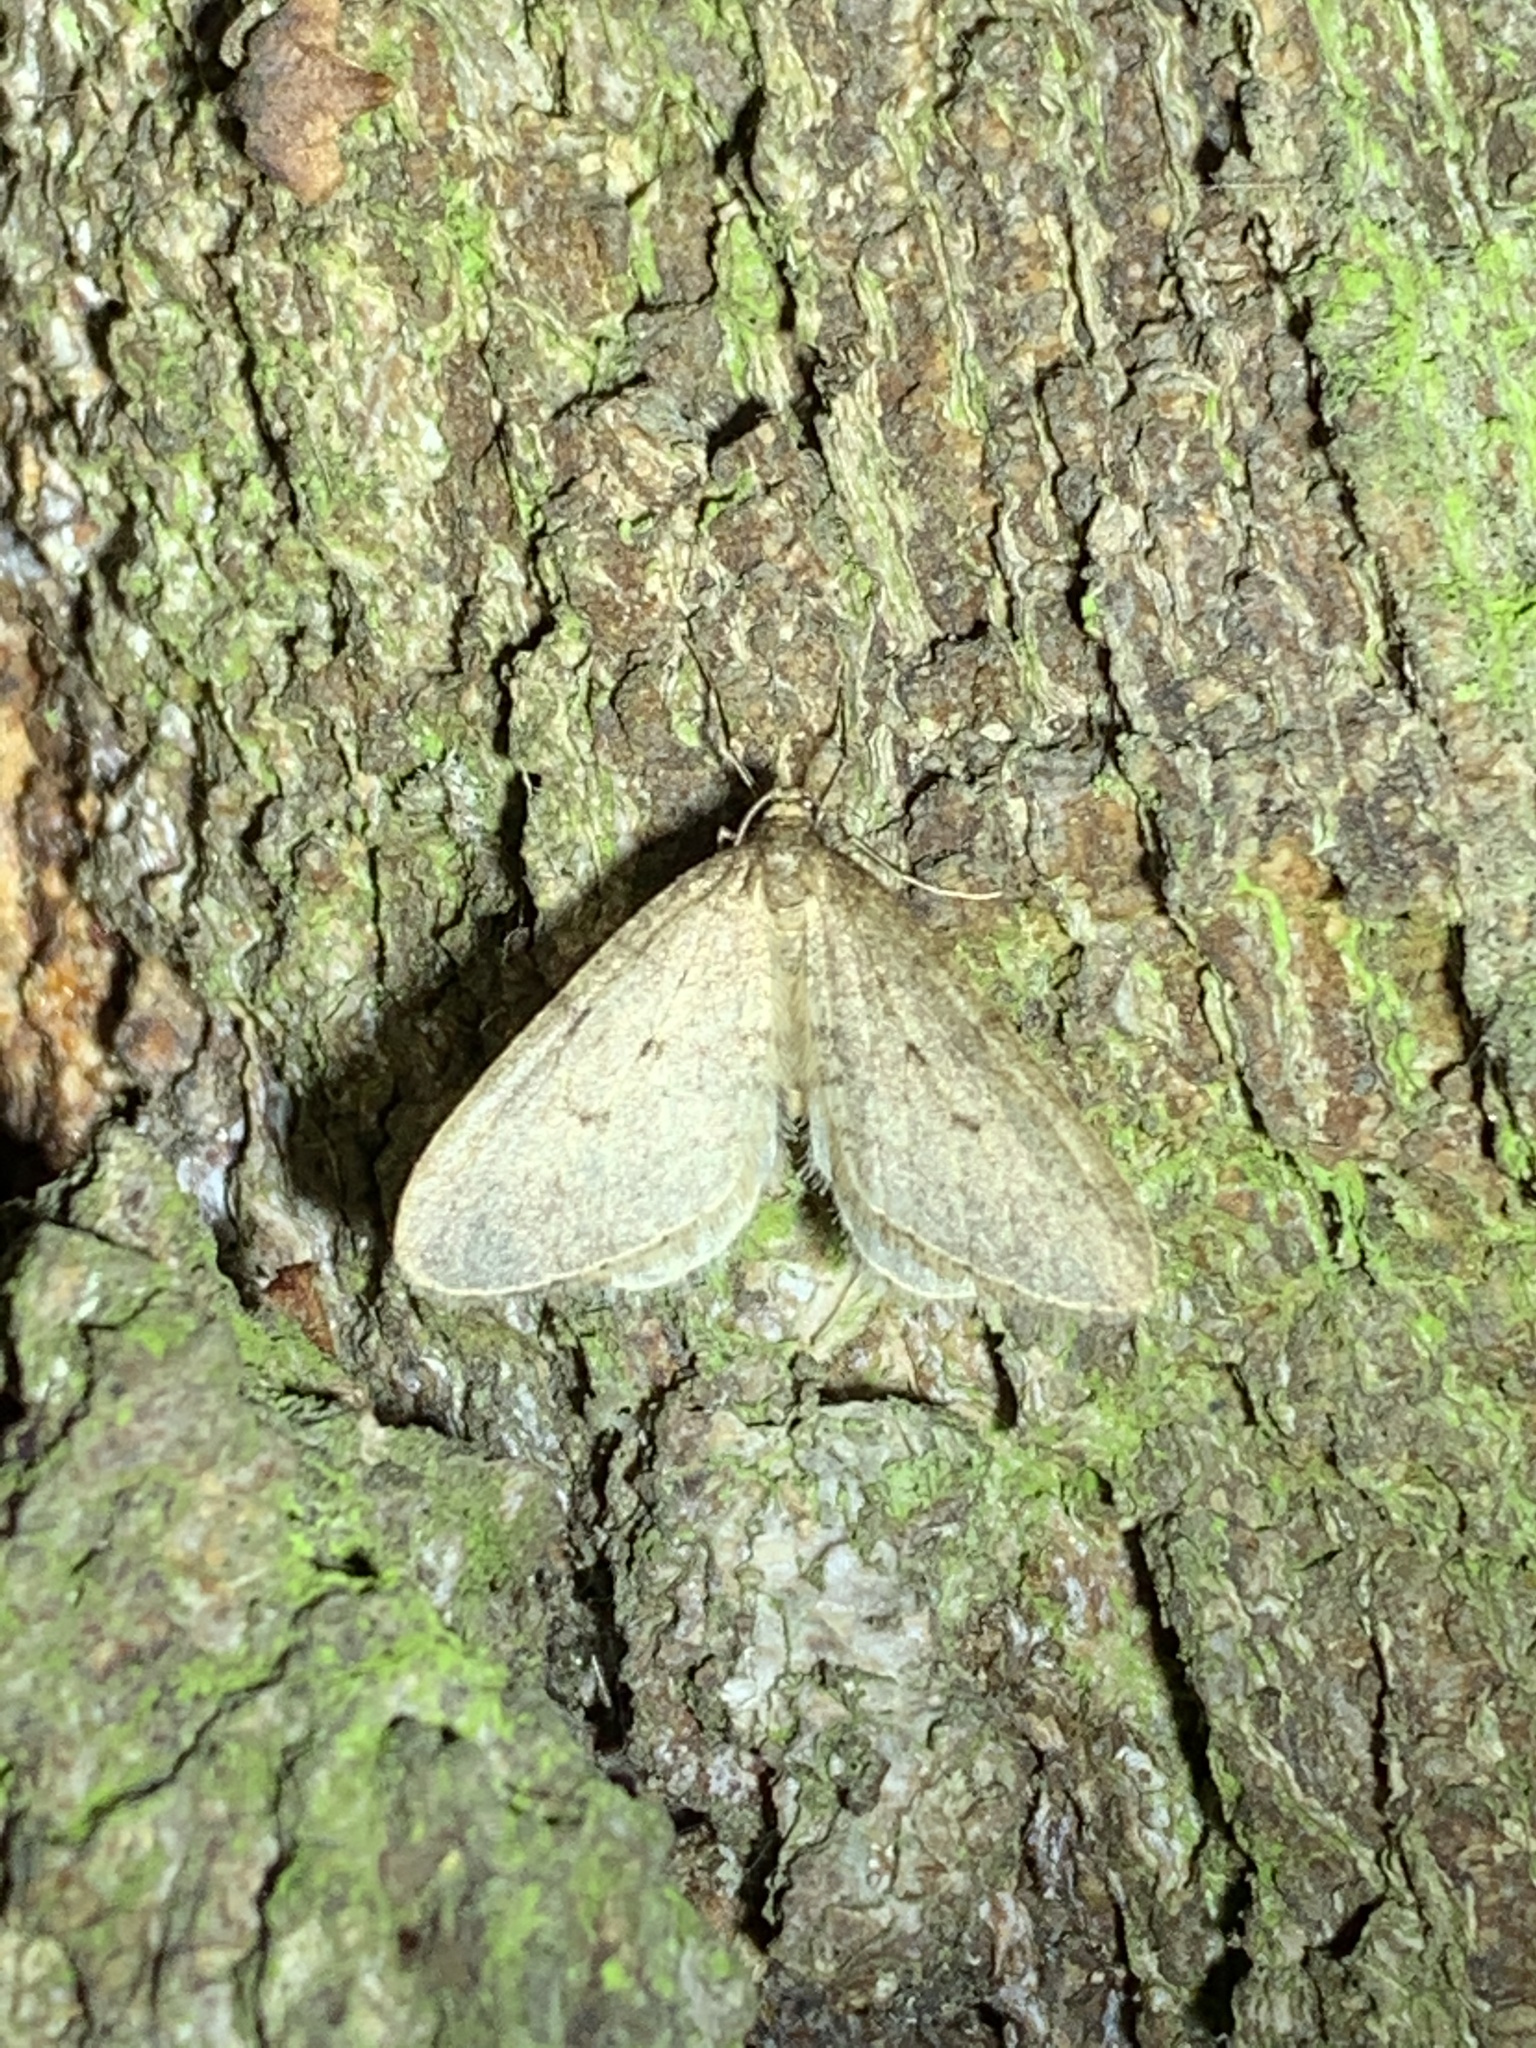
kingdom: Animalia
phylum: Arthropoda
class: Insecta
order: Lepidoptera
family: Geometridae
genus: Operophtera
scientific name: Operophtera brumata
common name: Winter moth
